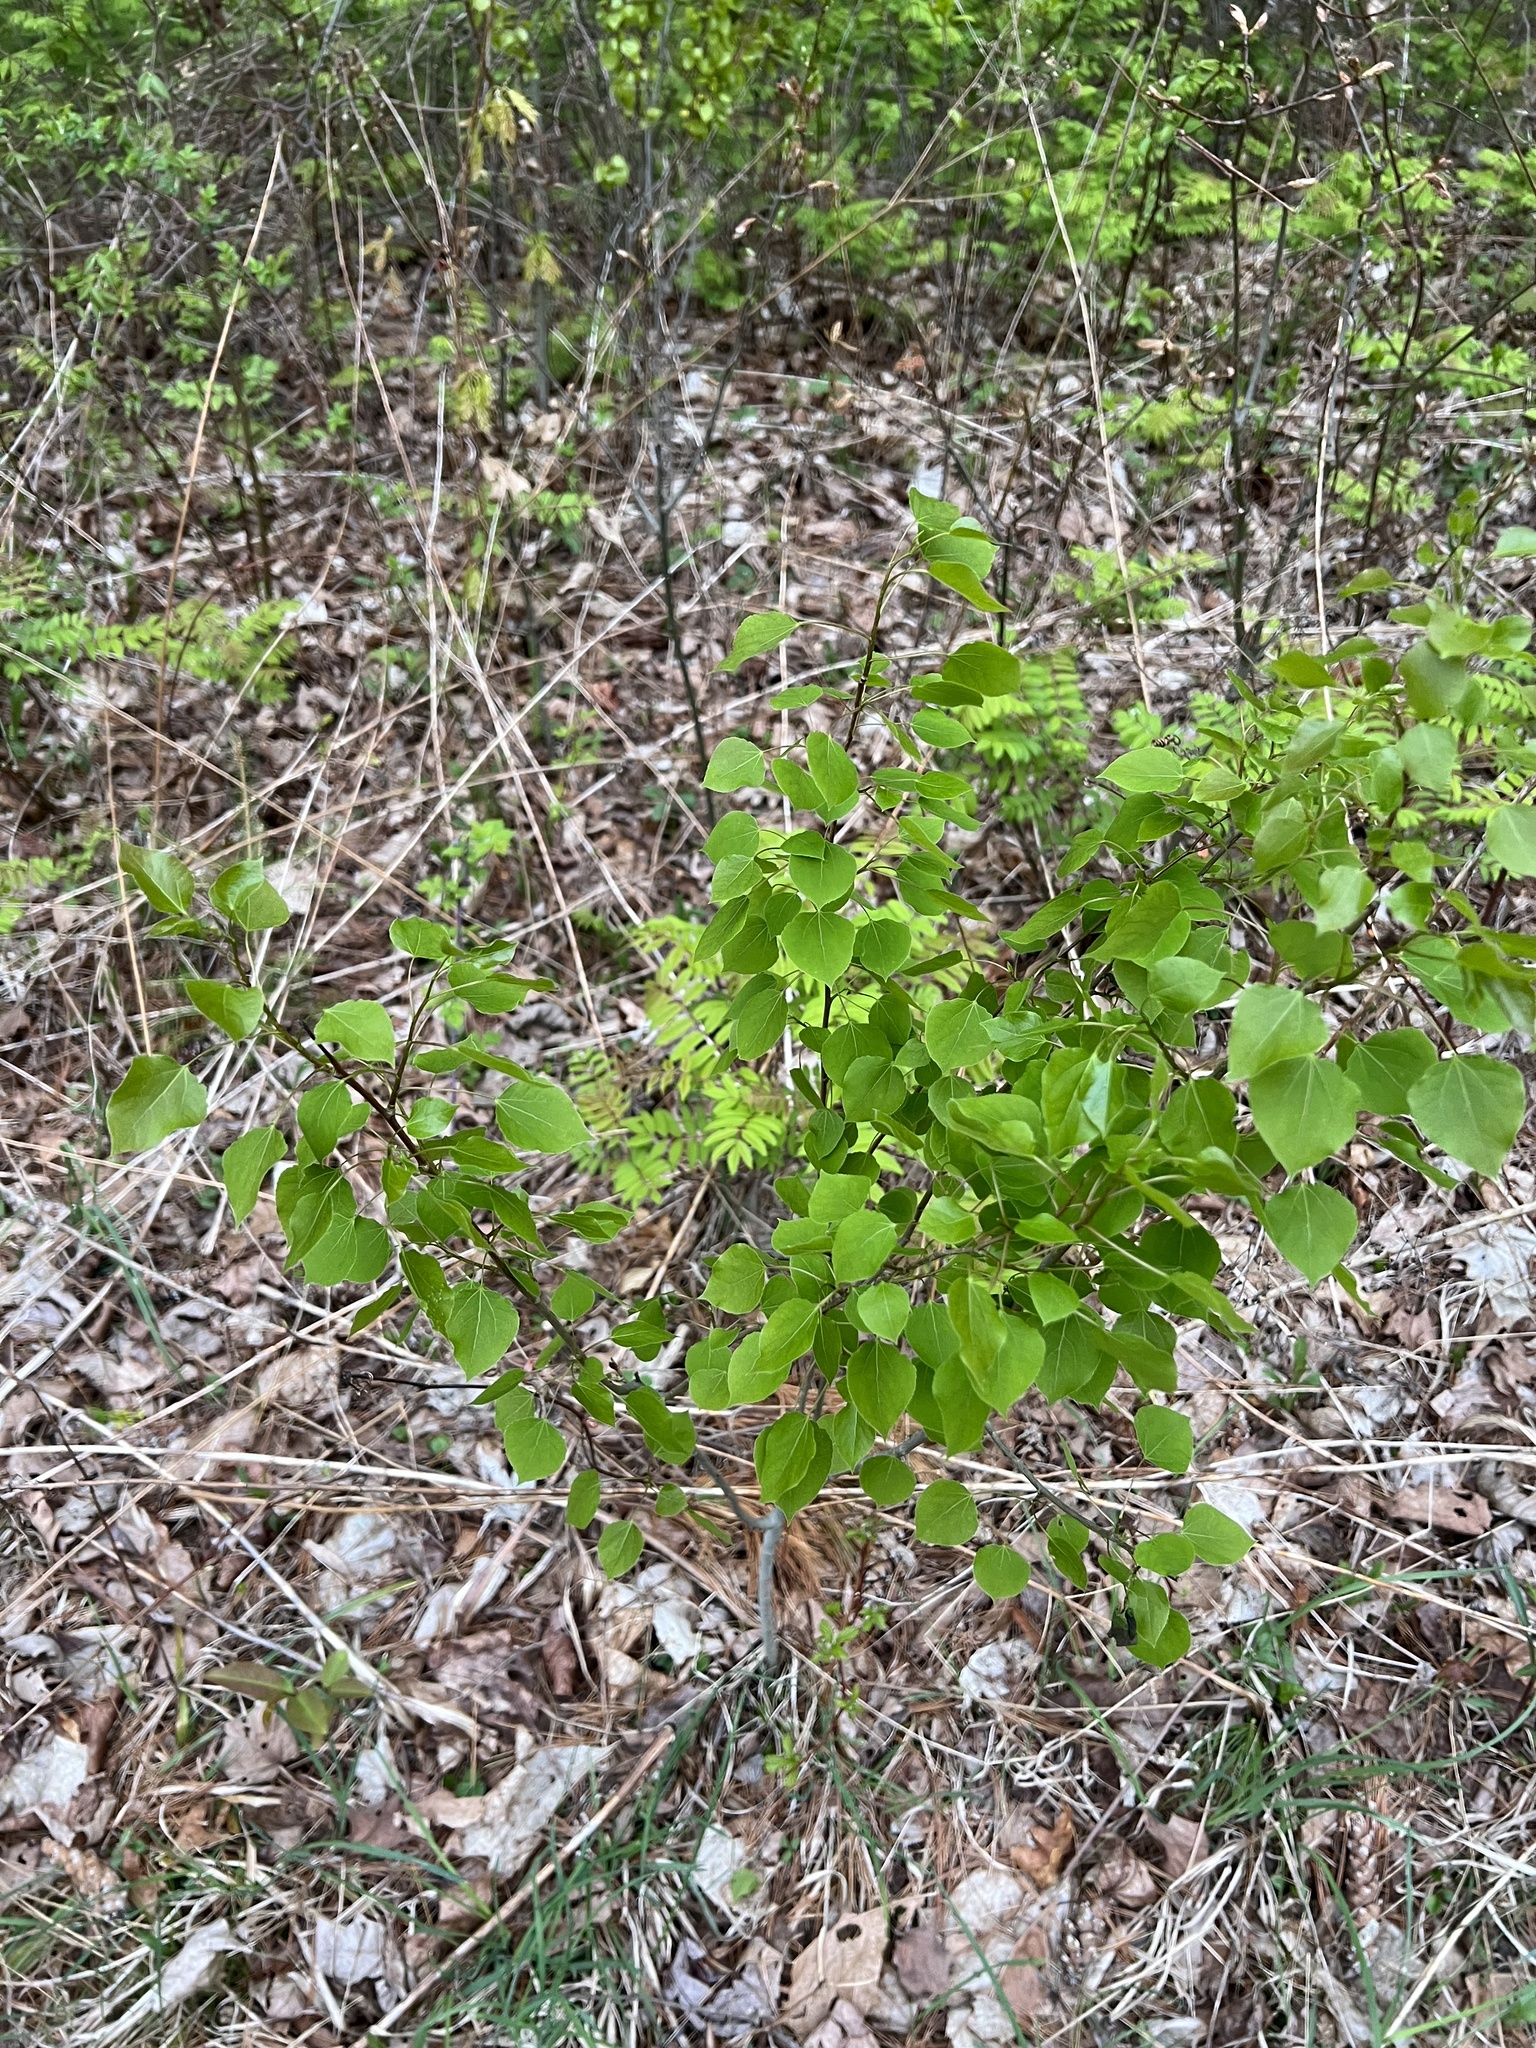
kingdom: Plantae
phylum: Tracheophyta
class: Magnoliopsida
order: Malpighiales
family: Salicaceae
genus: Populus
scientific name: Populus tremuloides
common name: Quaking aspen
